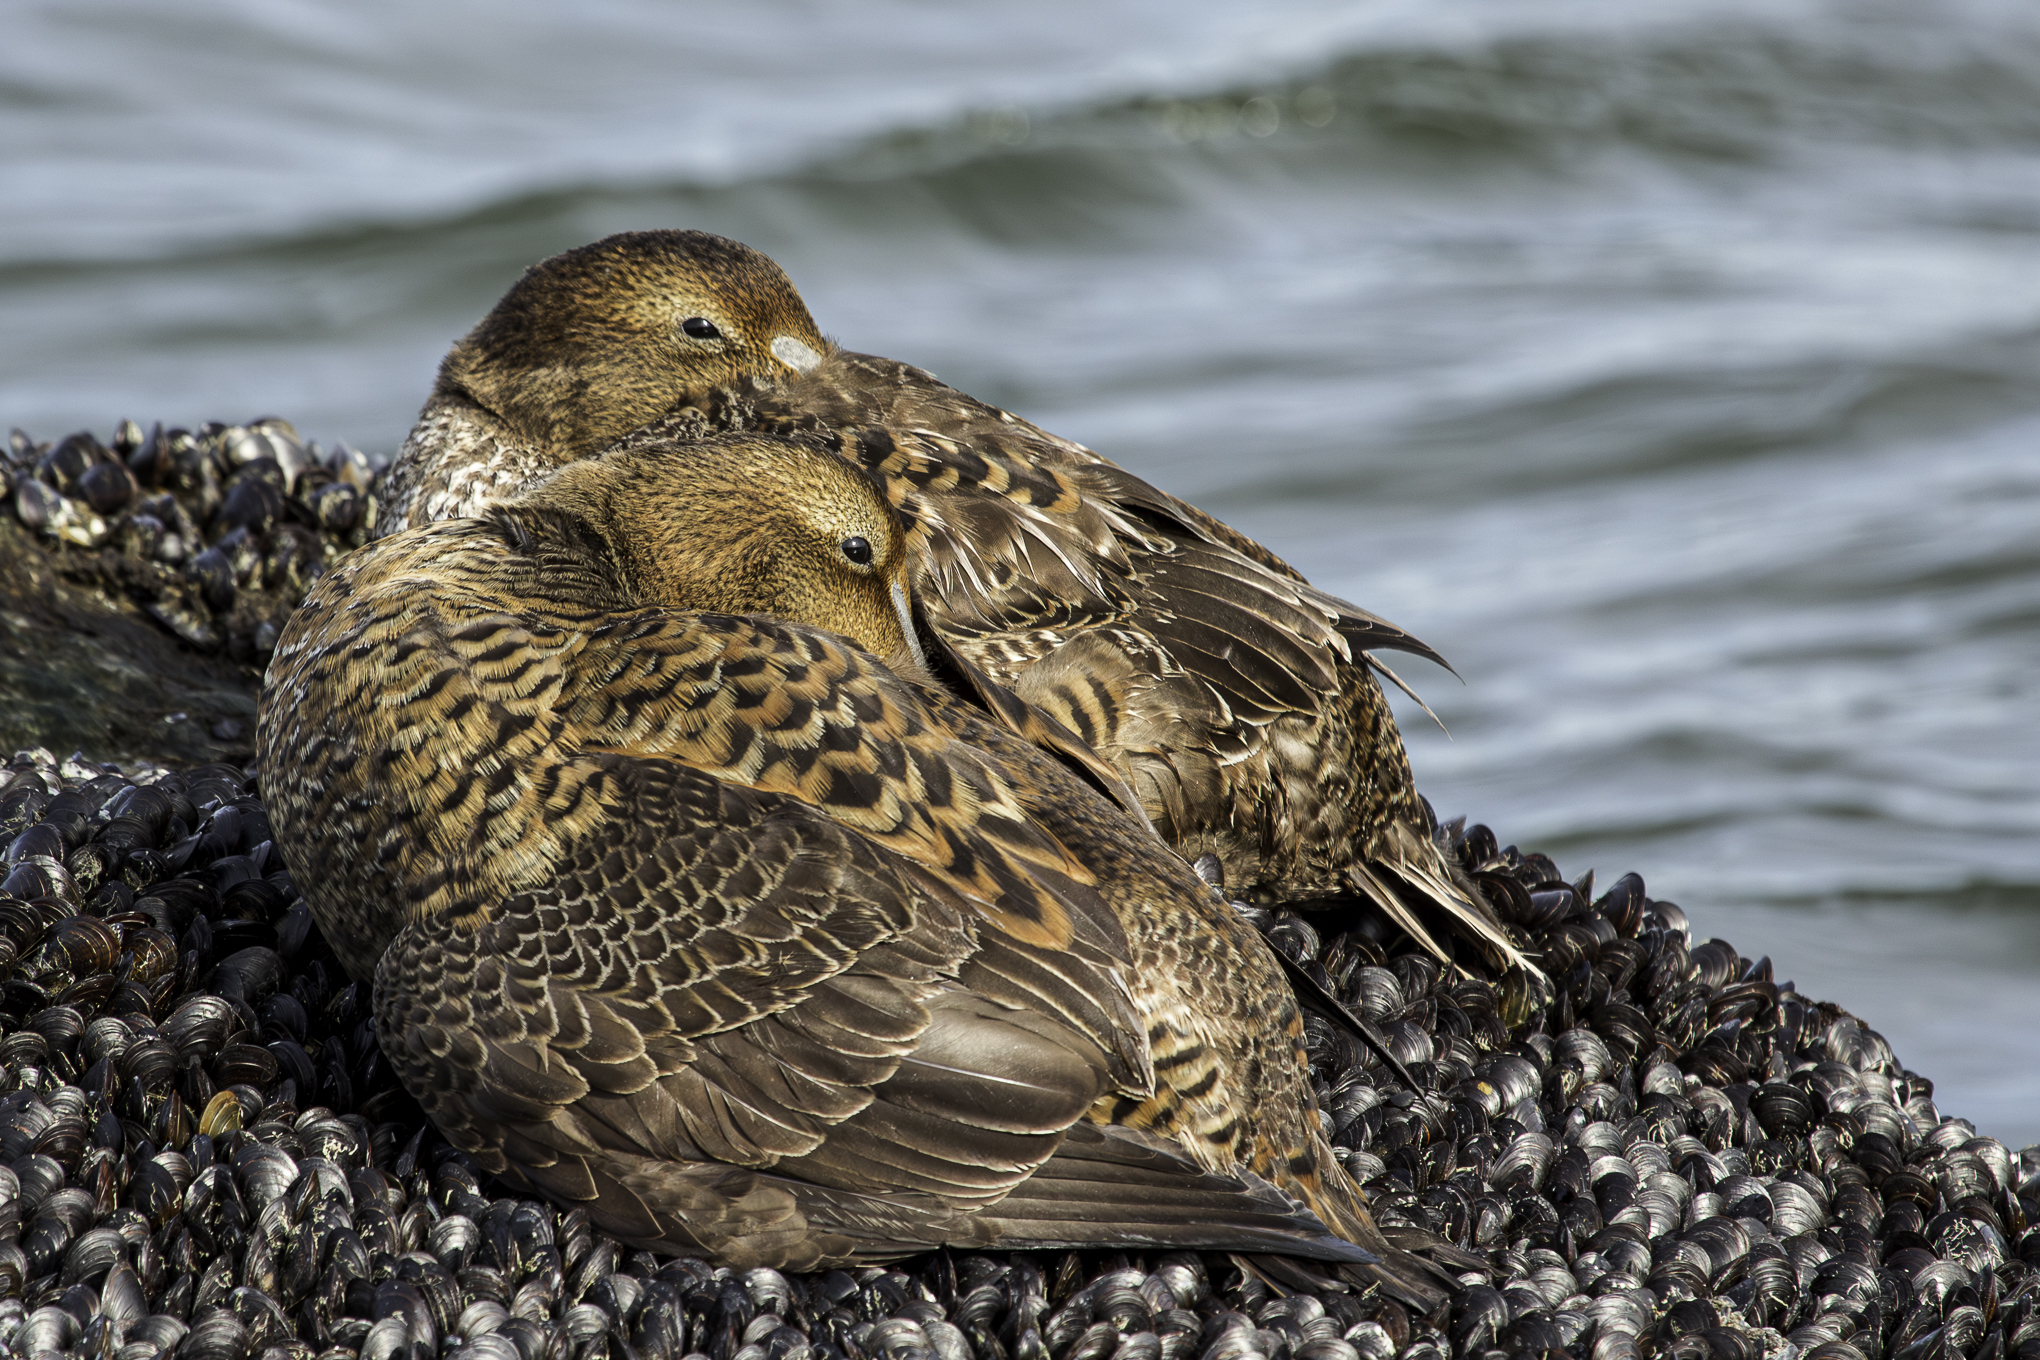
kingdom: Animalia
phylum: Chordata
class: Aves
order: Anseriformes
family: Anatidae
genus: Somateria
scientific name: Somateria mollissima
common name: Common eider
